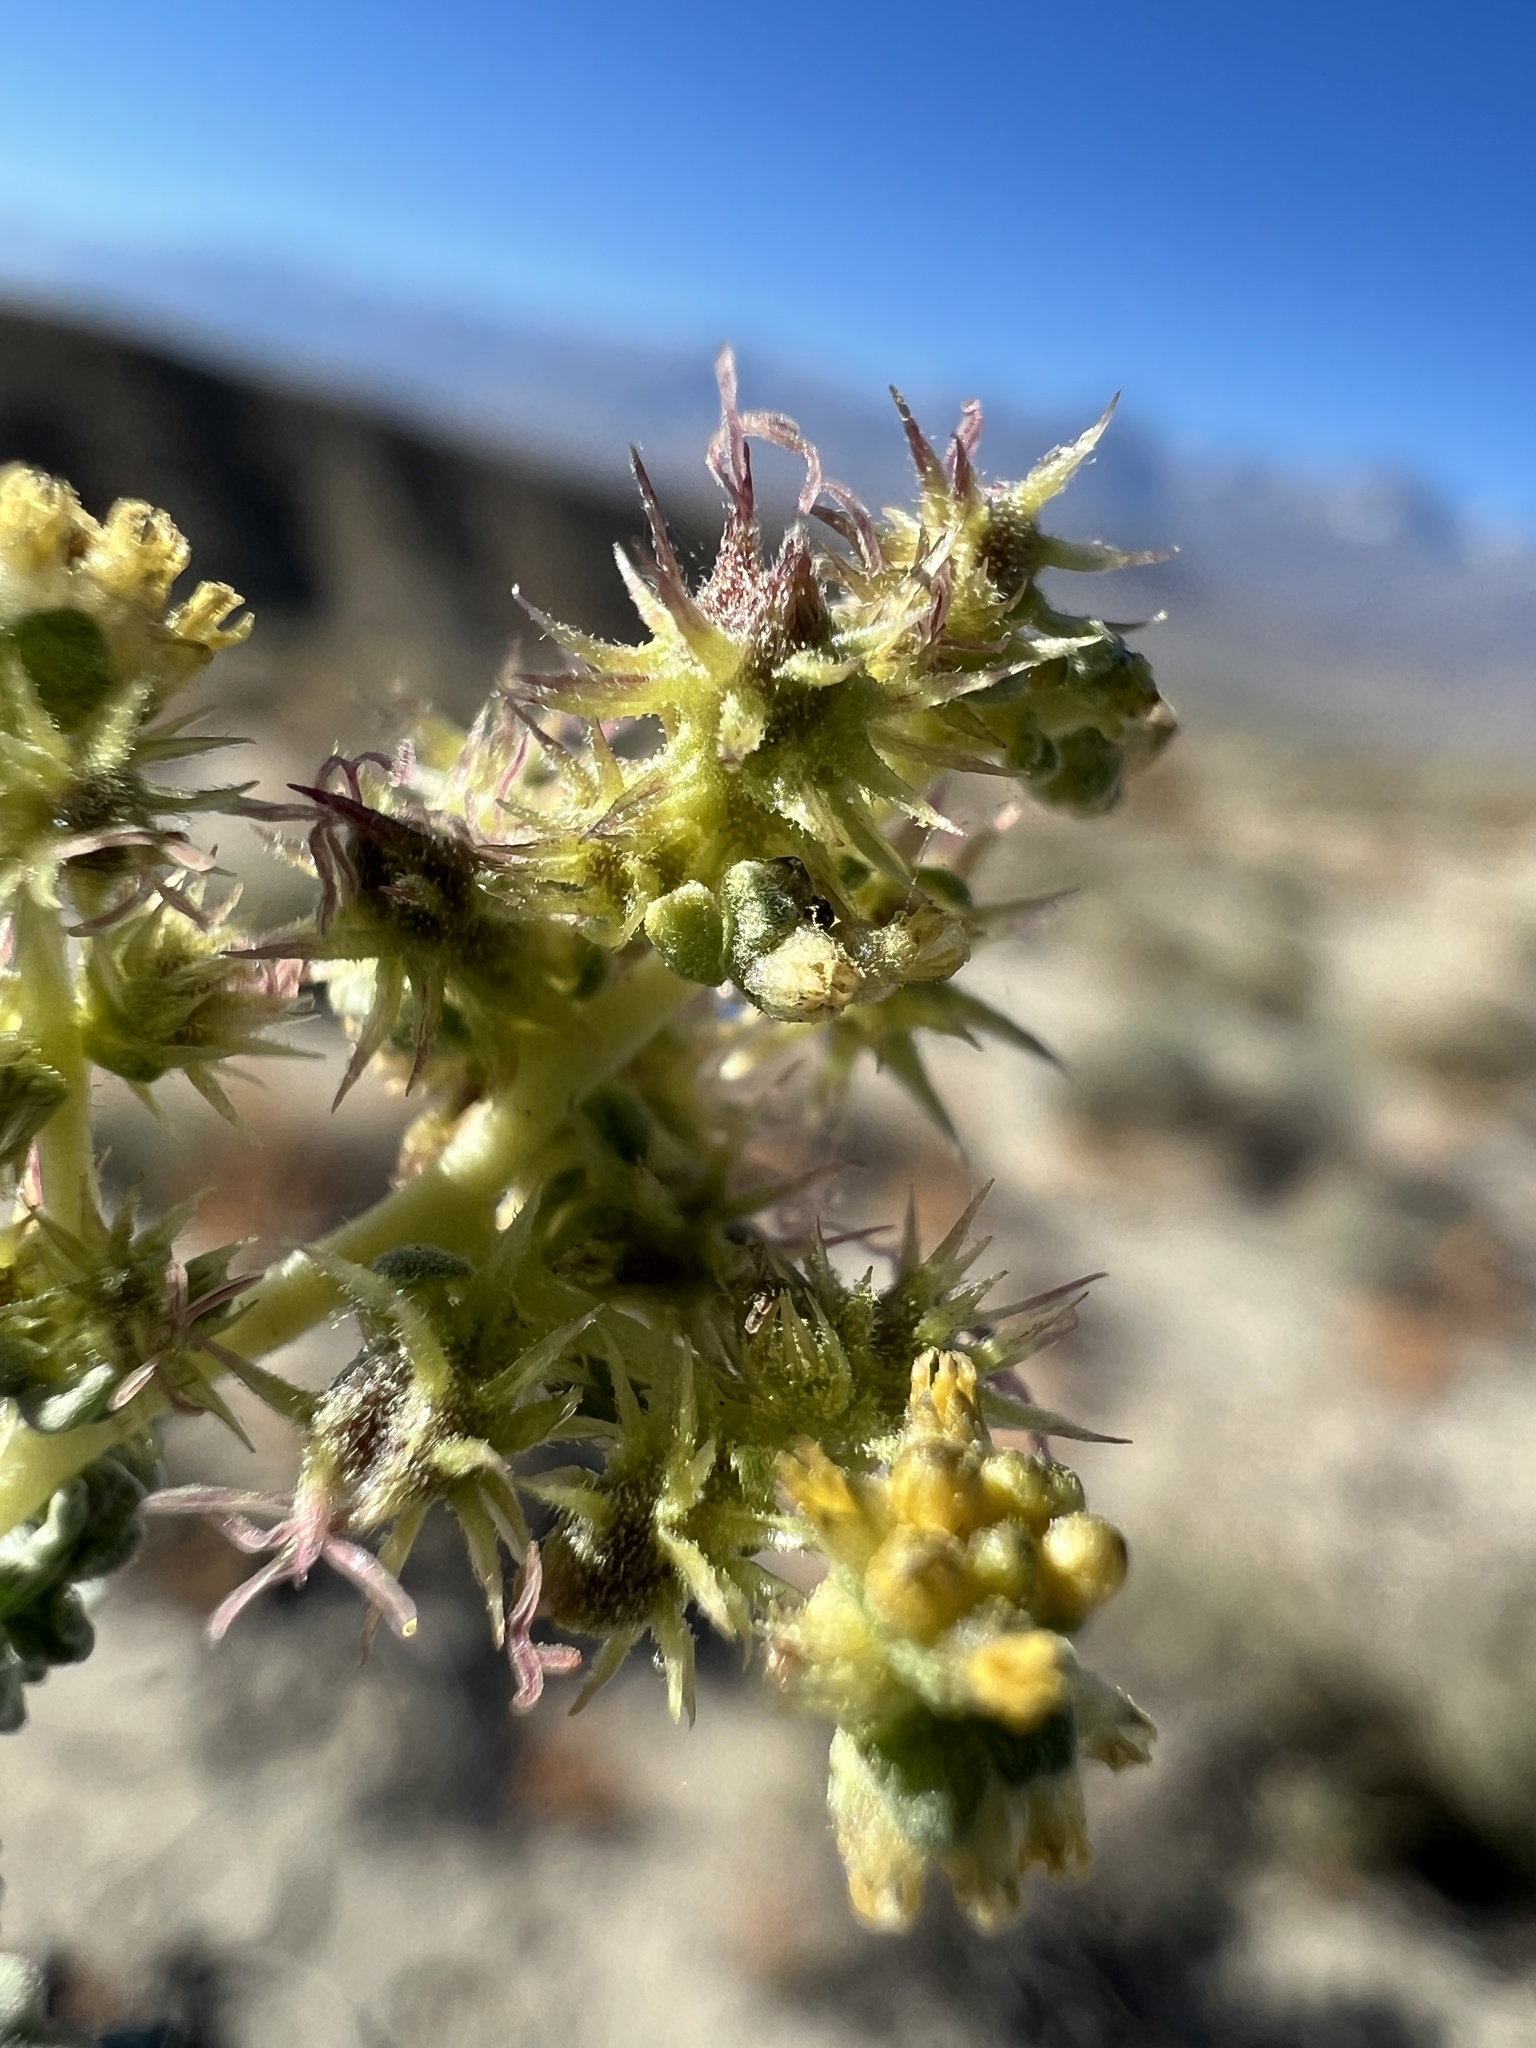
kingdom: Plantae
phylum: Tracheophyta
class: Magnoliopsida
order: Asterales
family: Asteraceae
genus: Ambrosia
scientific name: Ambrosia dumosa
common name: Bur-sage
